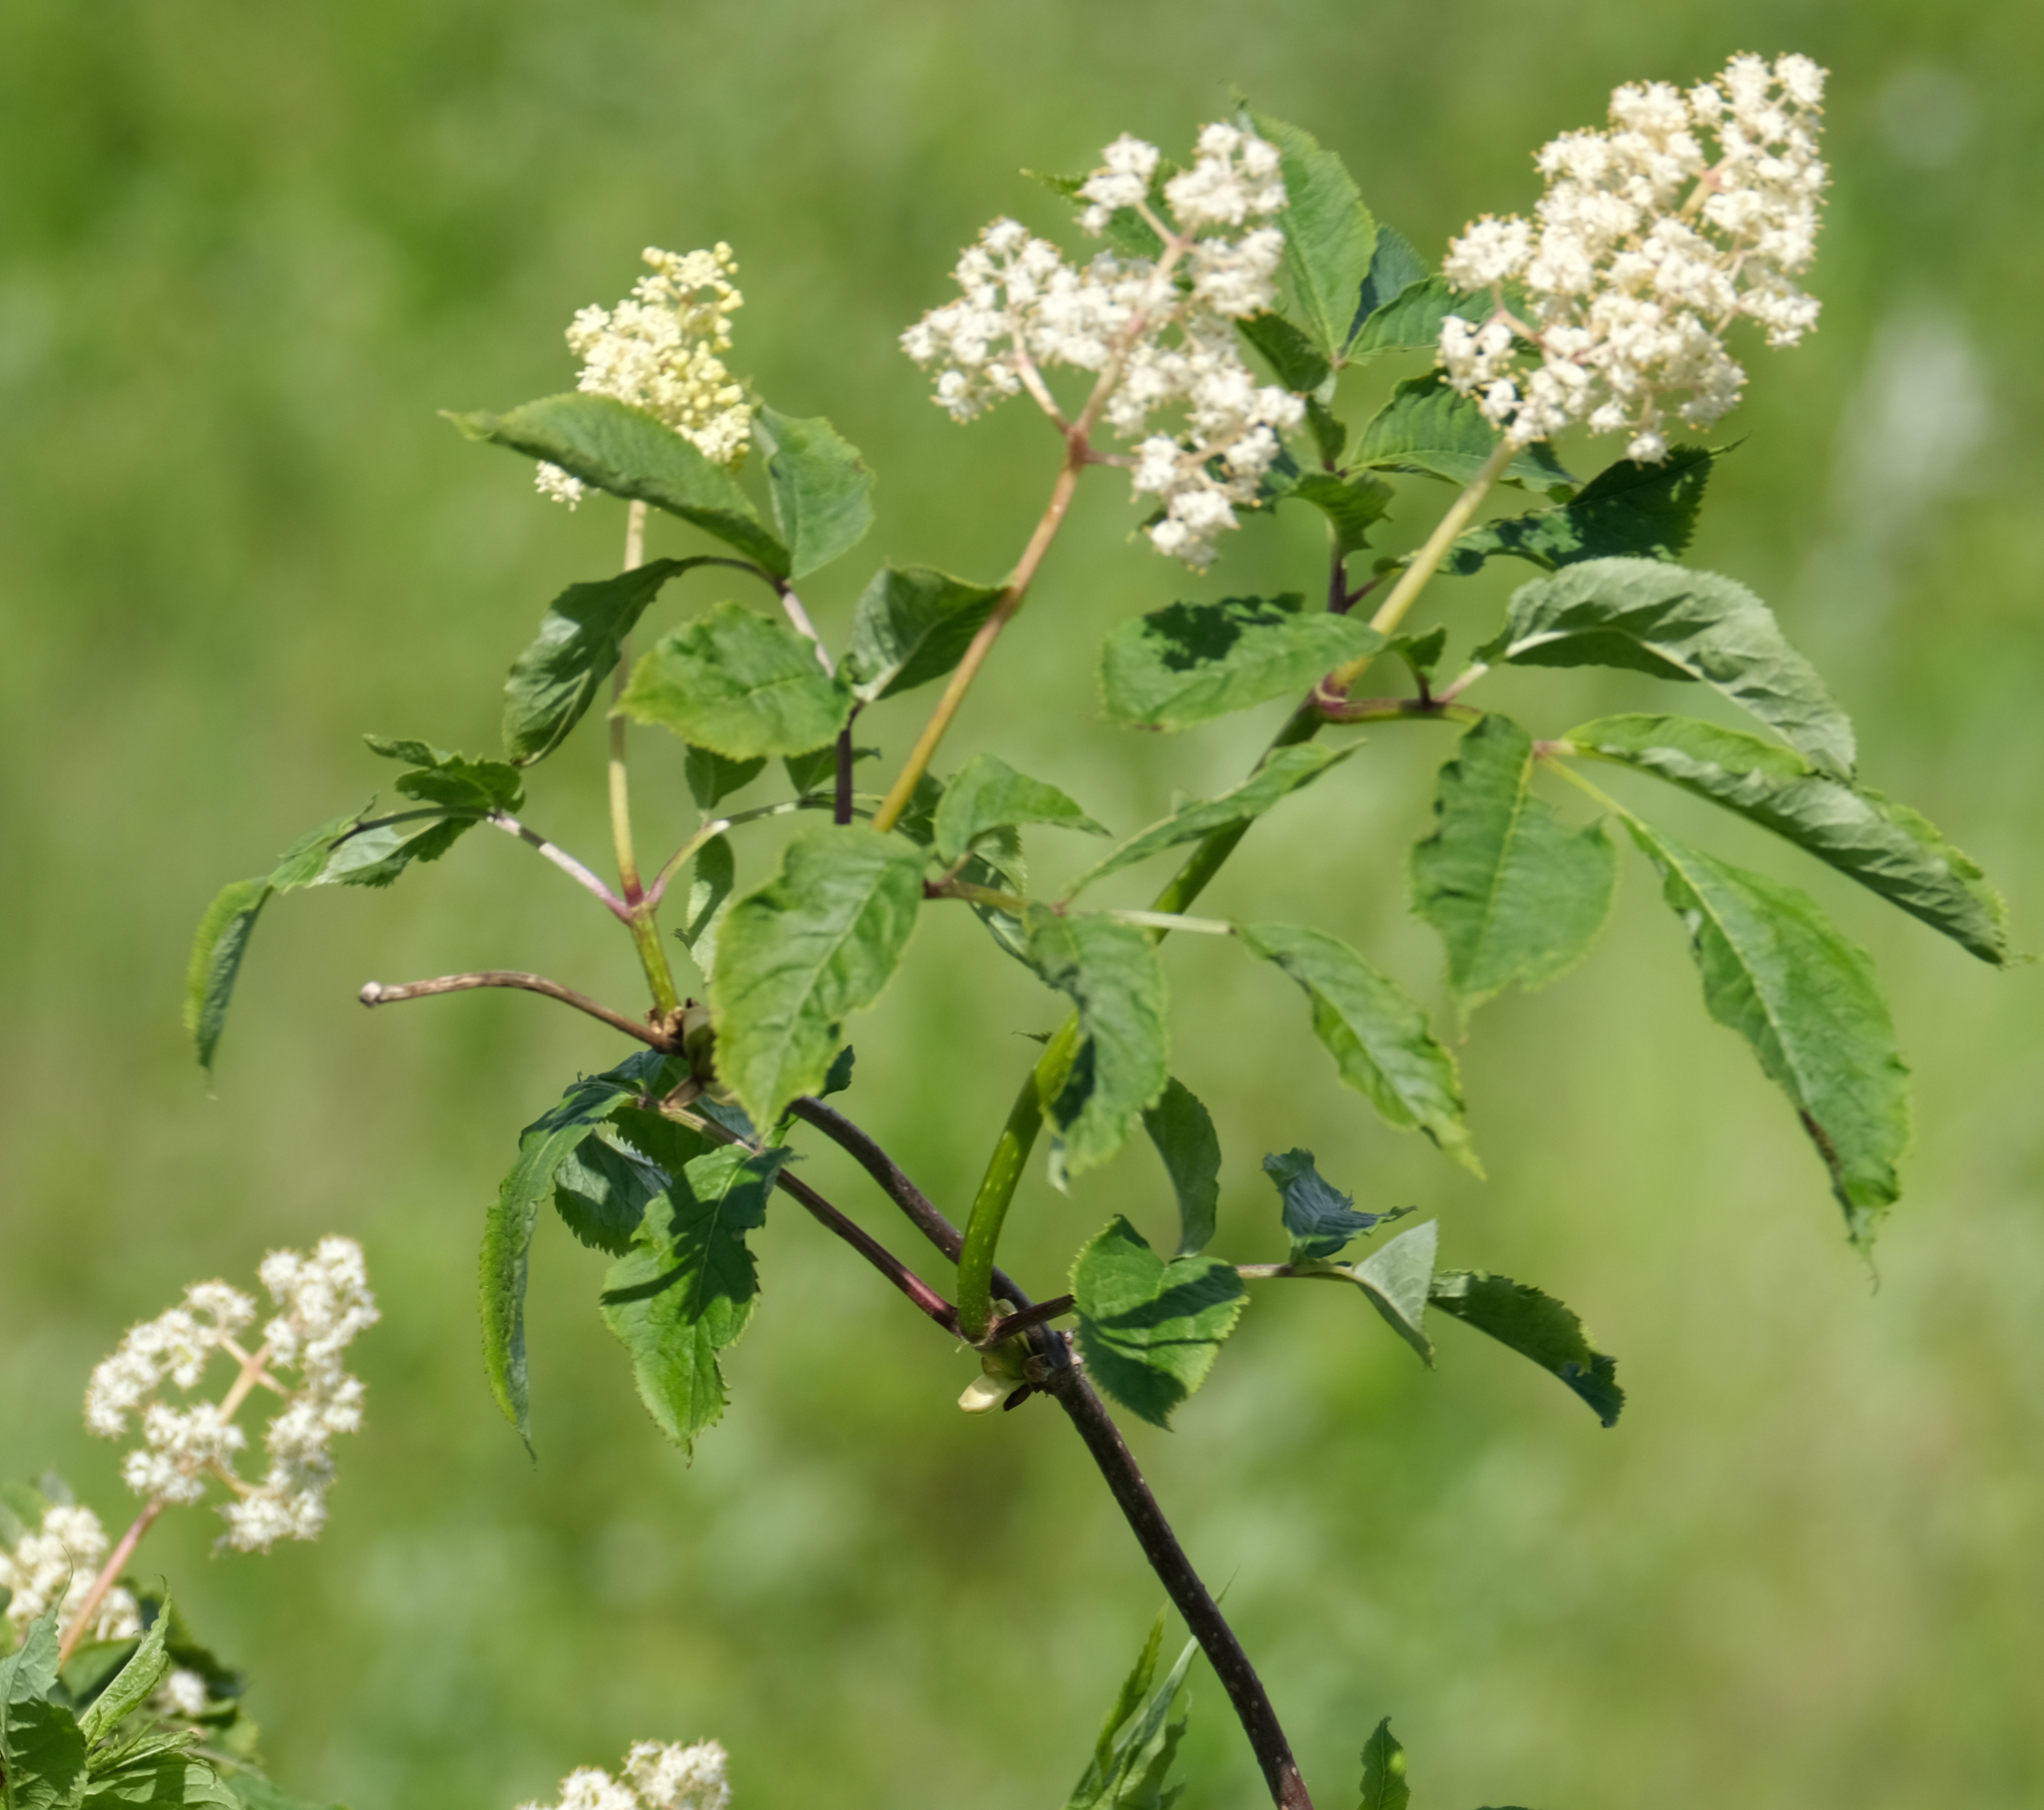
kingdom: Plantae
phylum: Tracheophyta
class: Magnoliopsida
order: Dipsacales
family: Viburnaceae
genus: Sambucus
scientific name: Sambucus racemosa
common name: Red-berried elder
